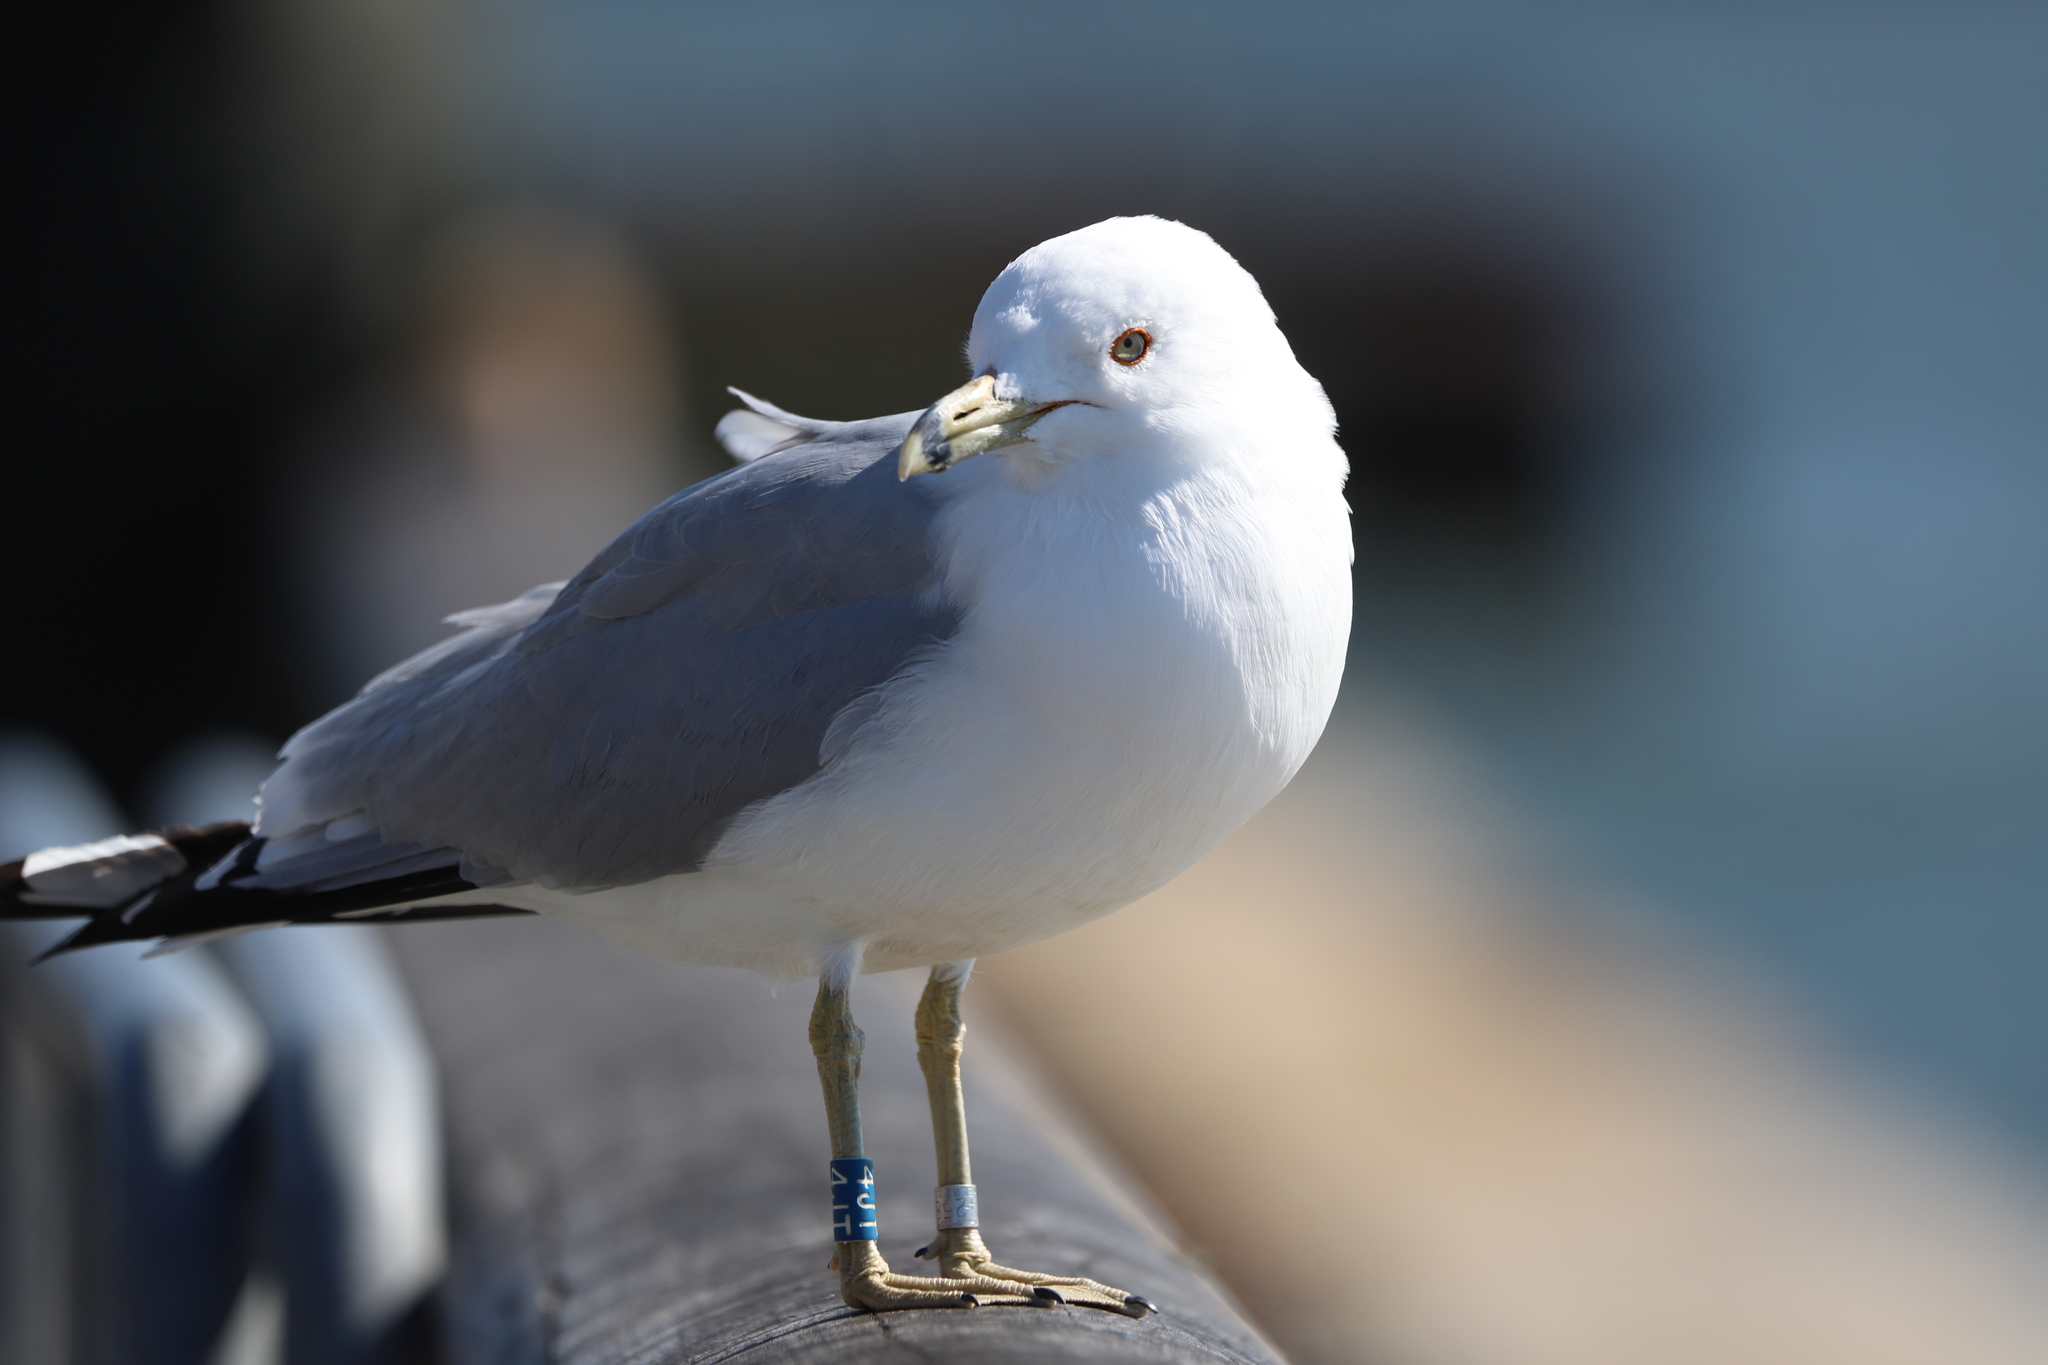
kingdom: Animalia
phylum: Chordata
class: Aves
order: Charadriiformes
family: Laridae
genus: Larus
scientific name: Larus delawarensis
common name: Ring-billed gull
